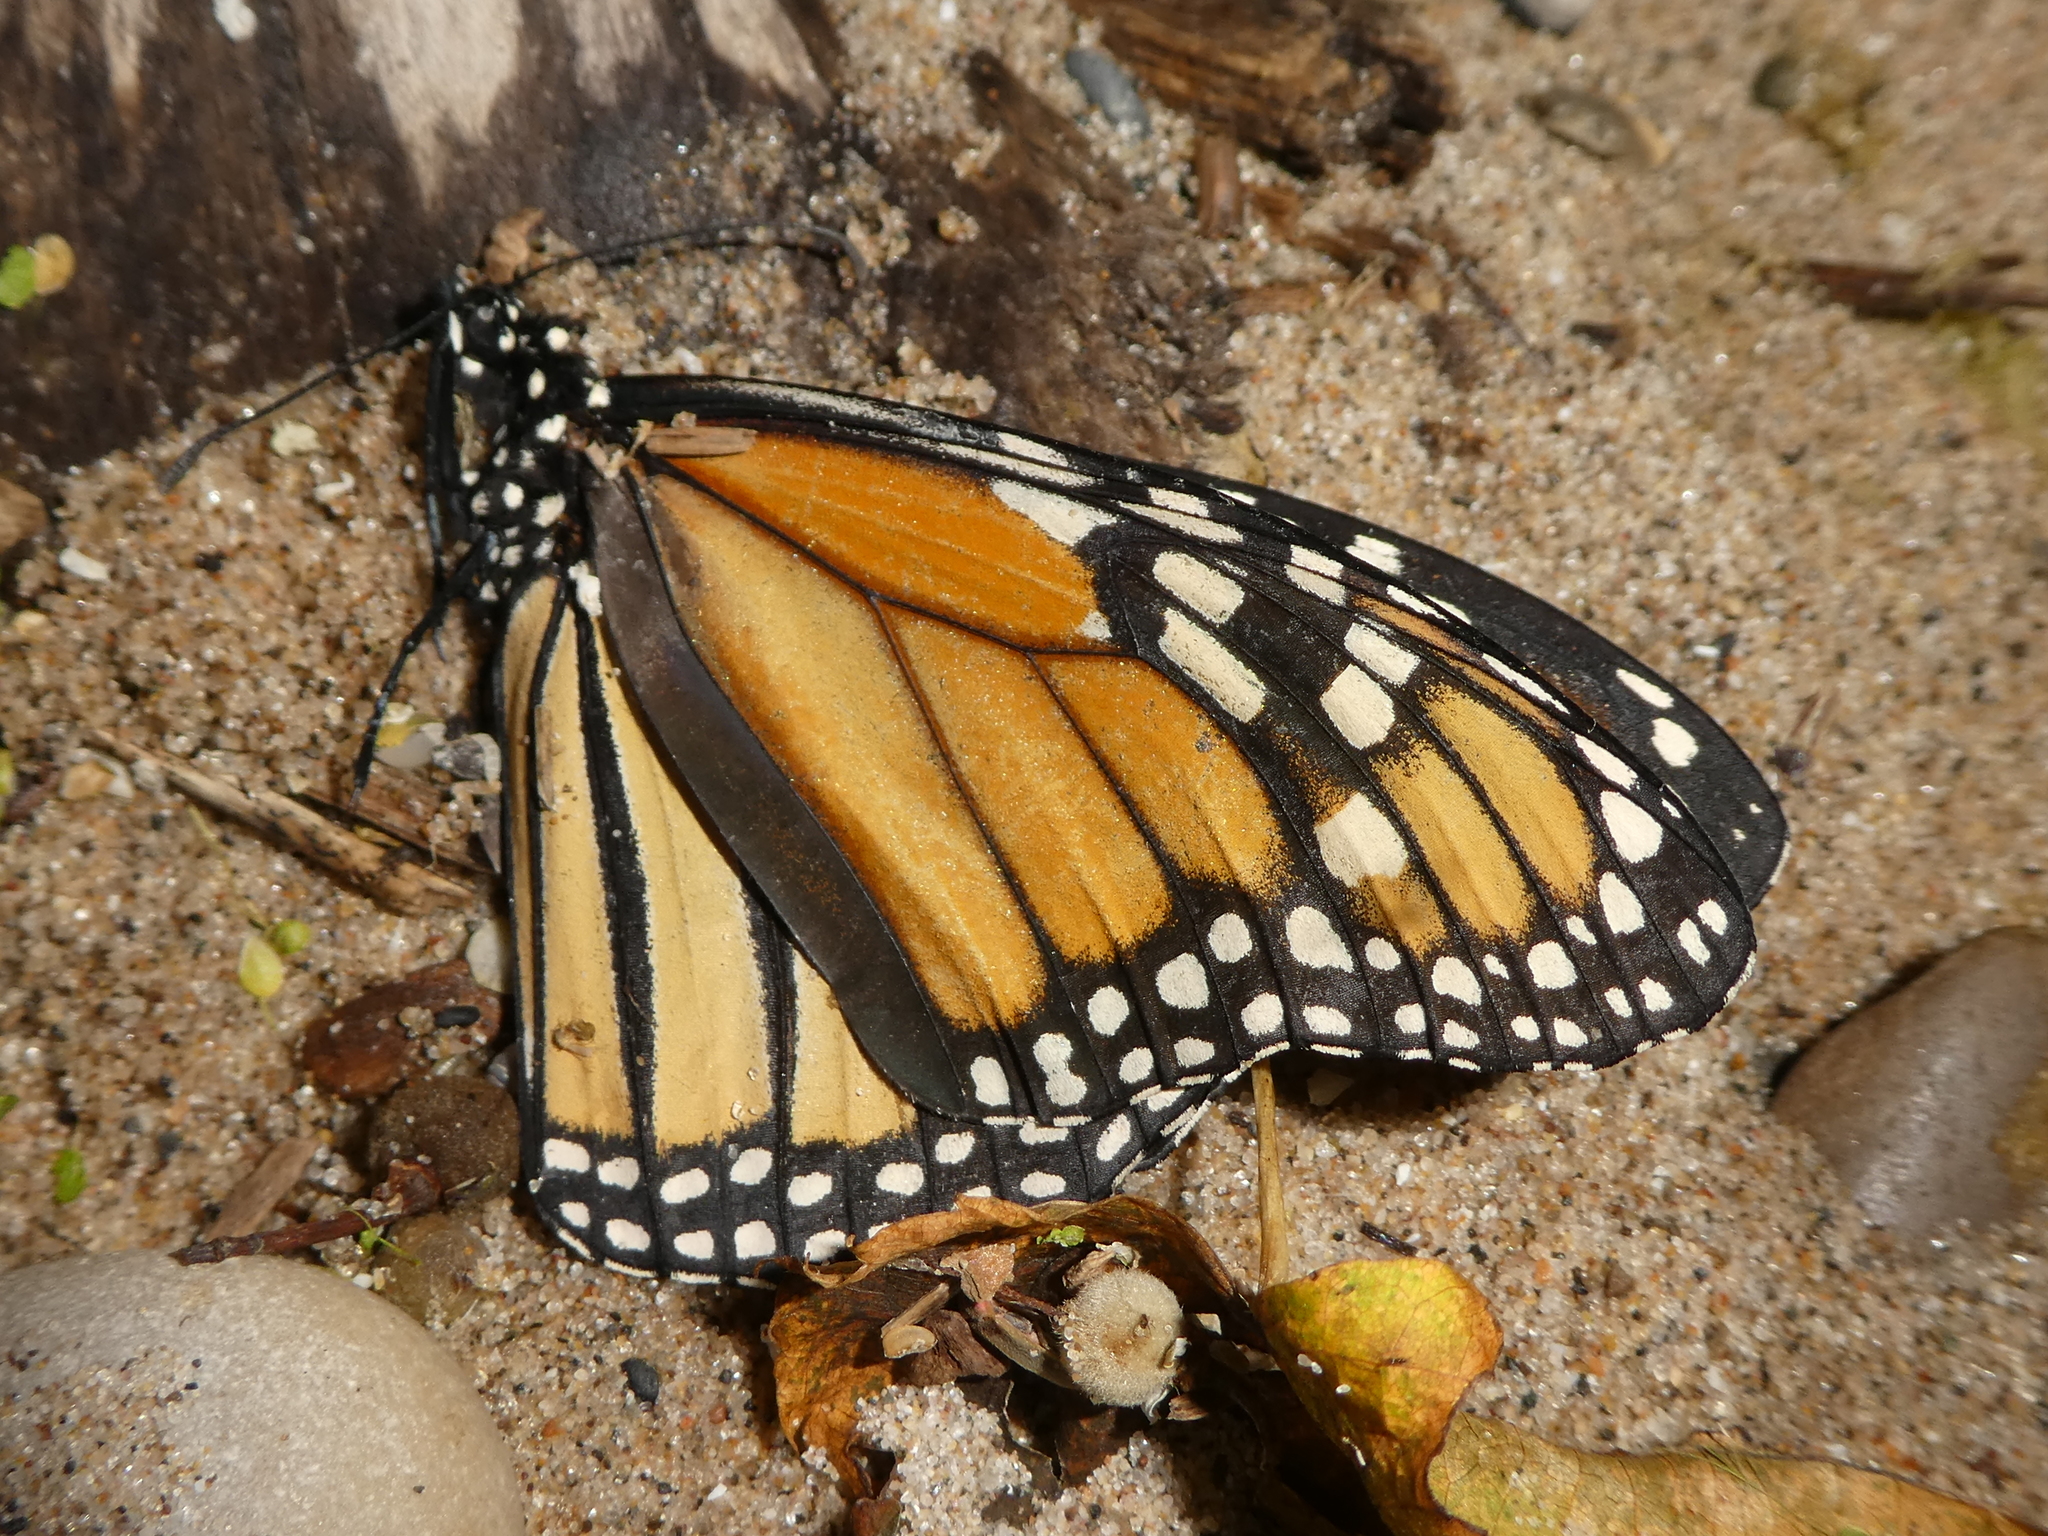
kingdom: Animalia
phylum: Arthropoda
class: Insecta
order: Lepidoptera
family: Nymphalidae
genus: Danaus
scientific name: Danaus plexippus
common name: Monarch
